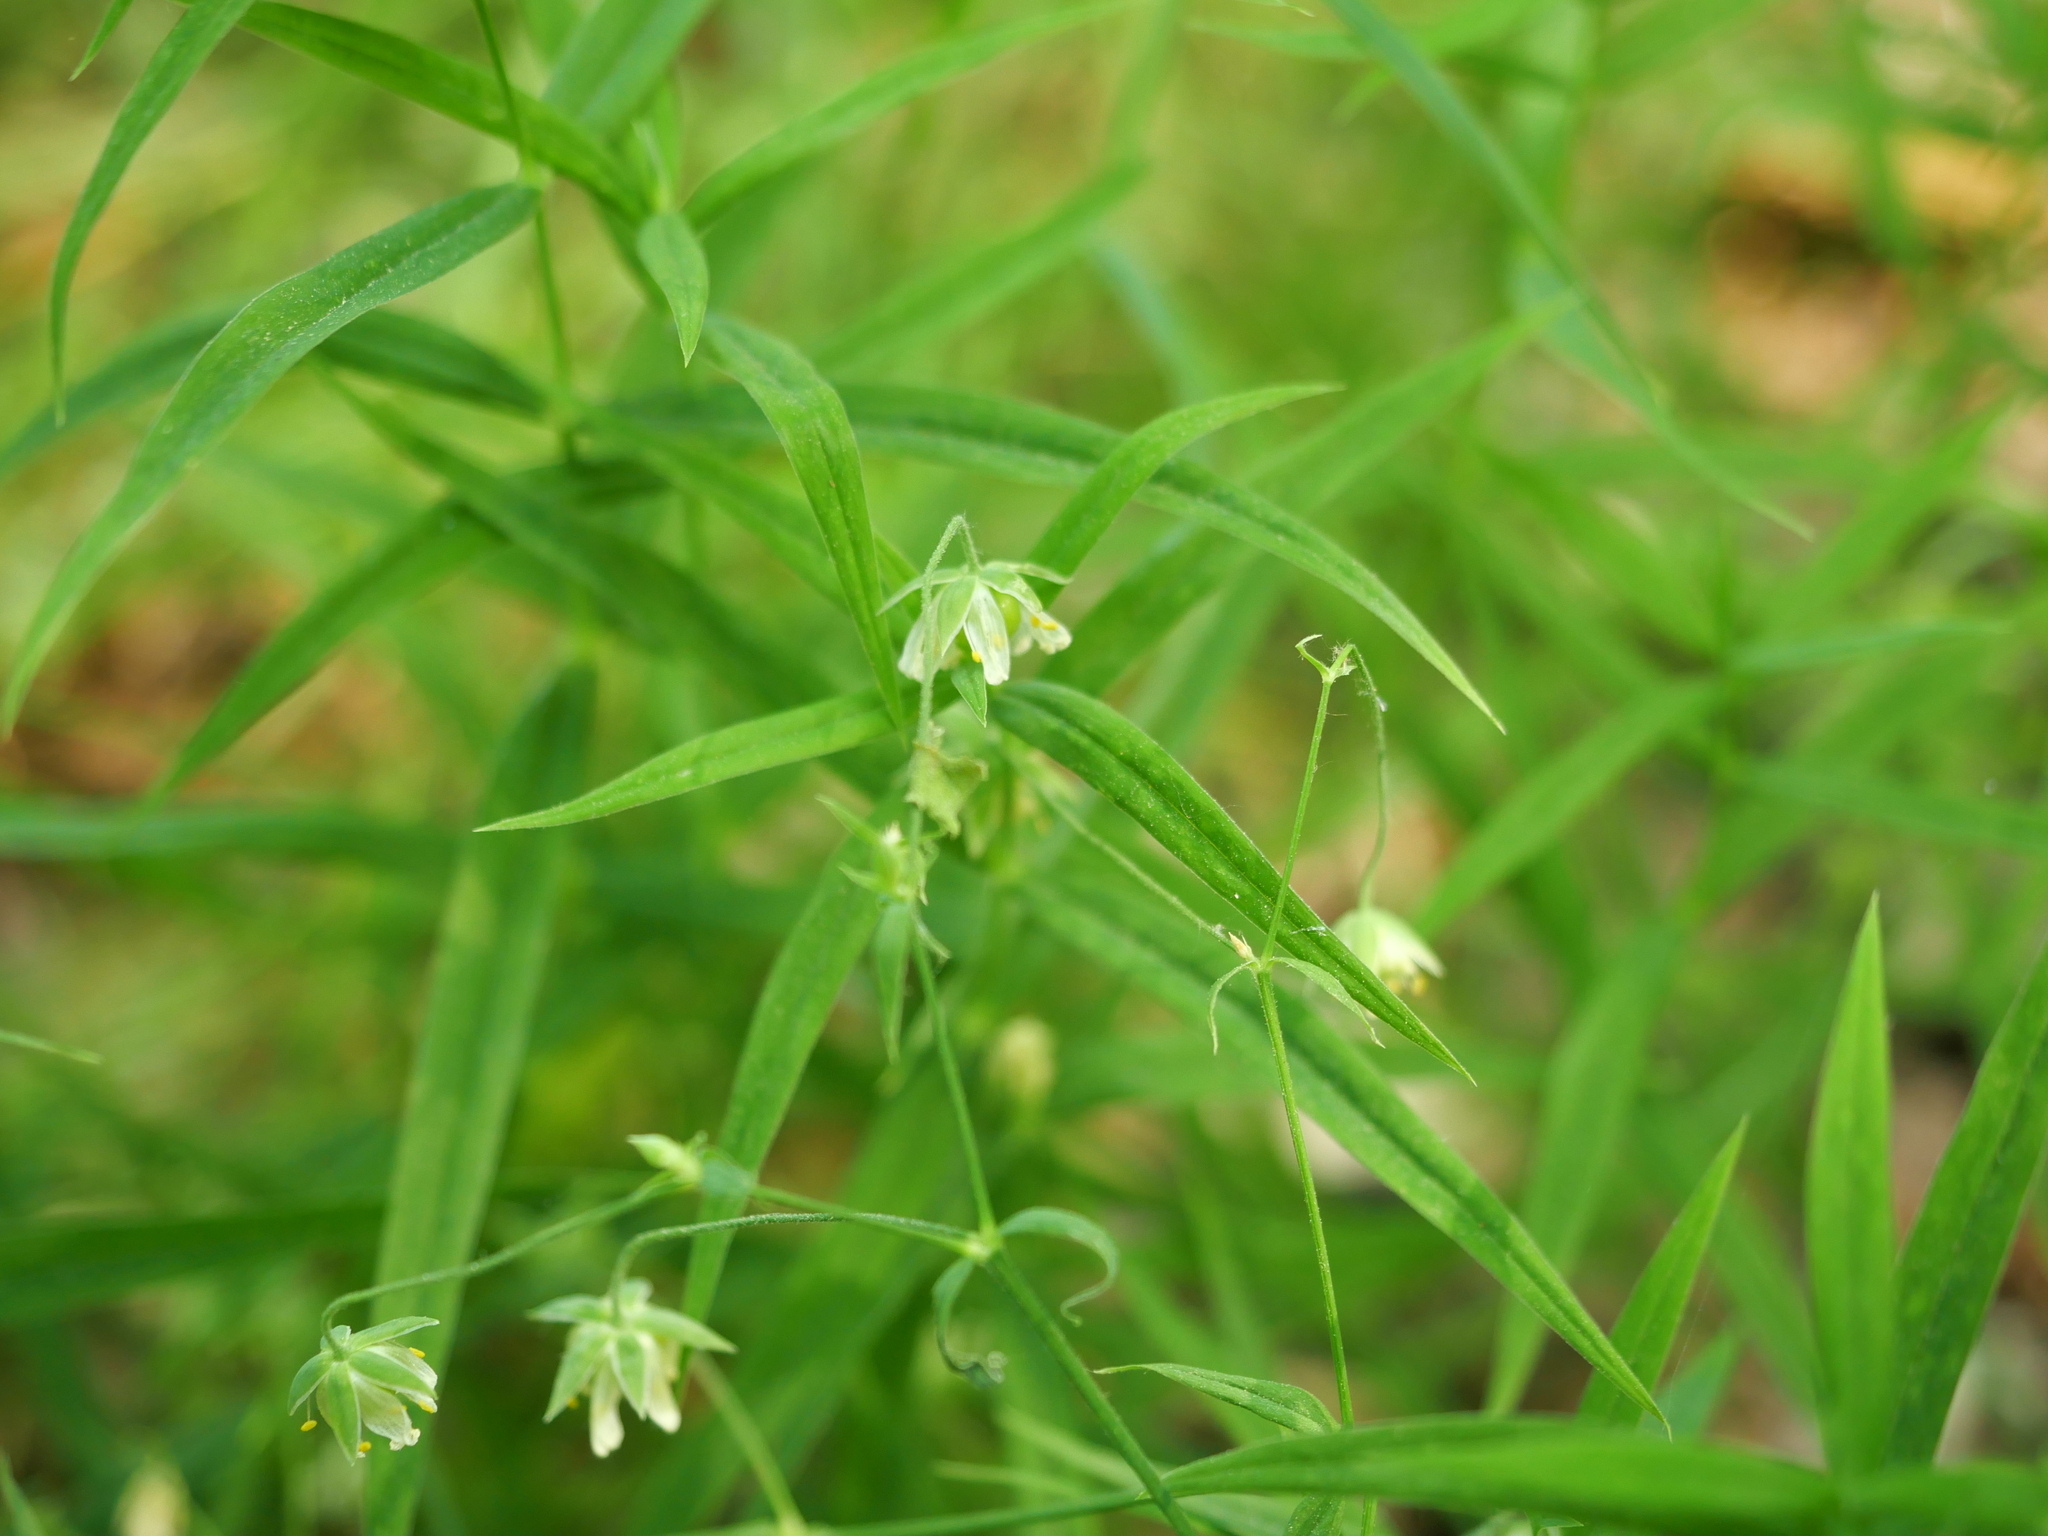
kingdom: Plantae
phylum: Tracheophyta
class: Magnoliopsida
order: Caryophyllales
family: Caryophyllaceae
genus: Rabelera
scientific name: Rabelera holostea
